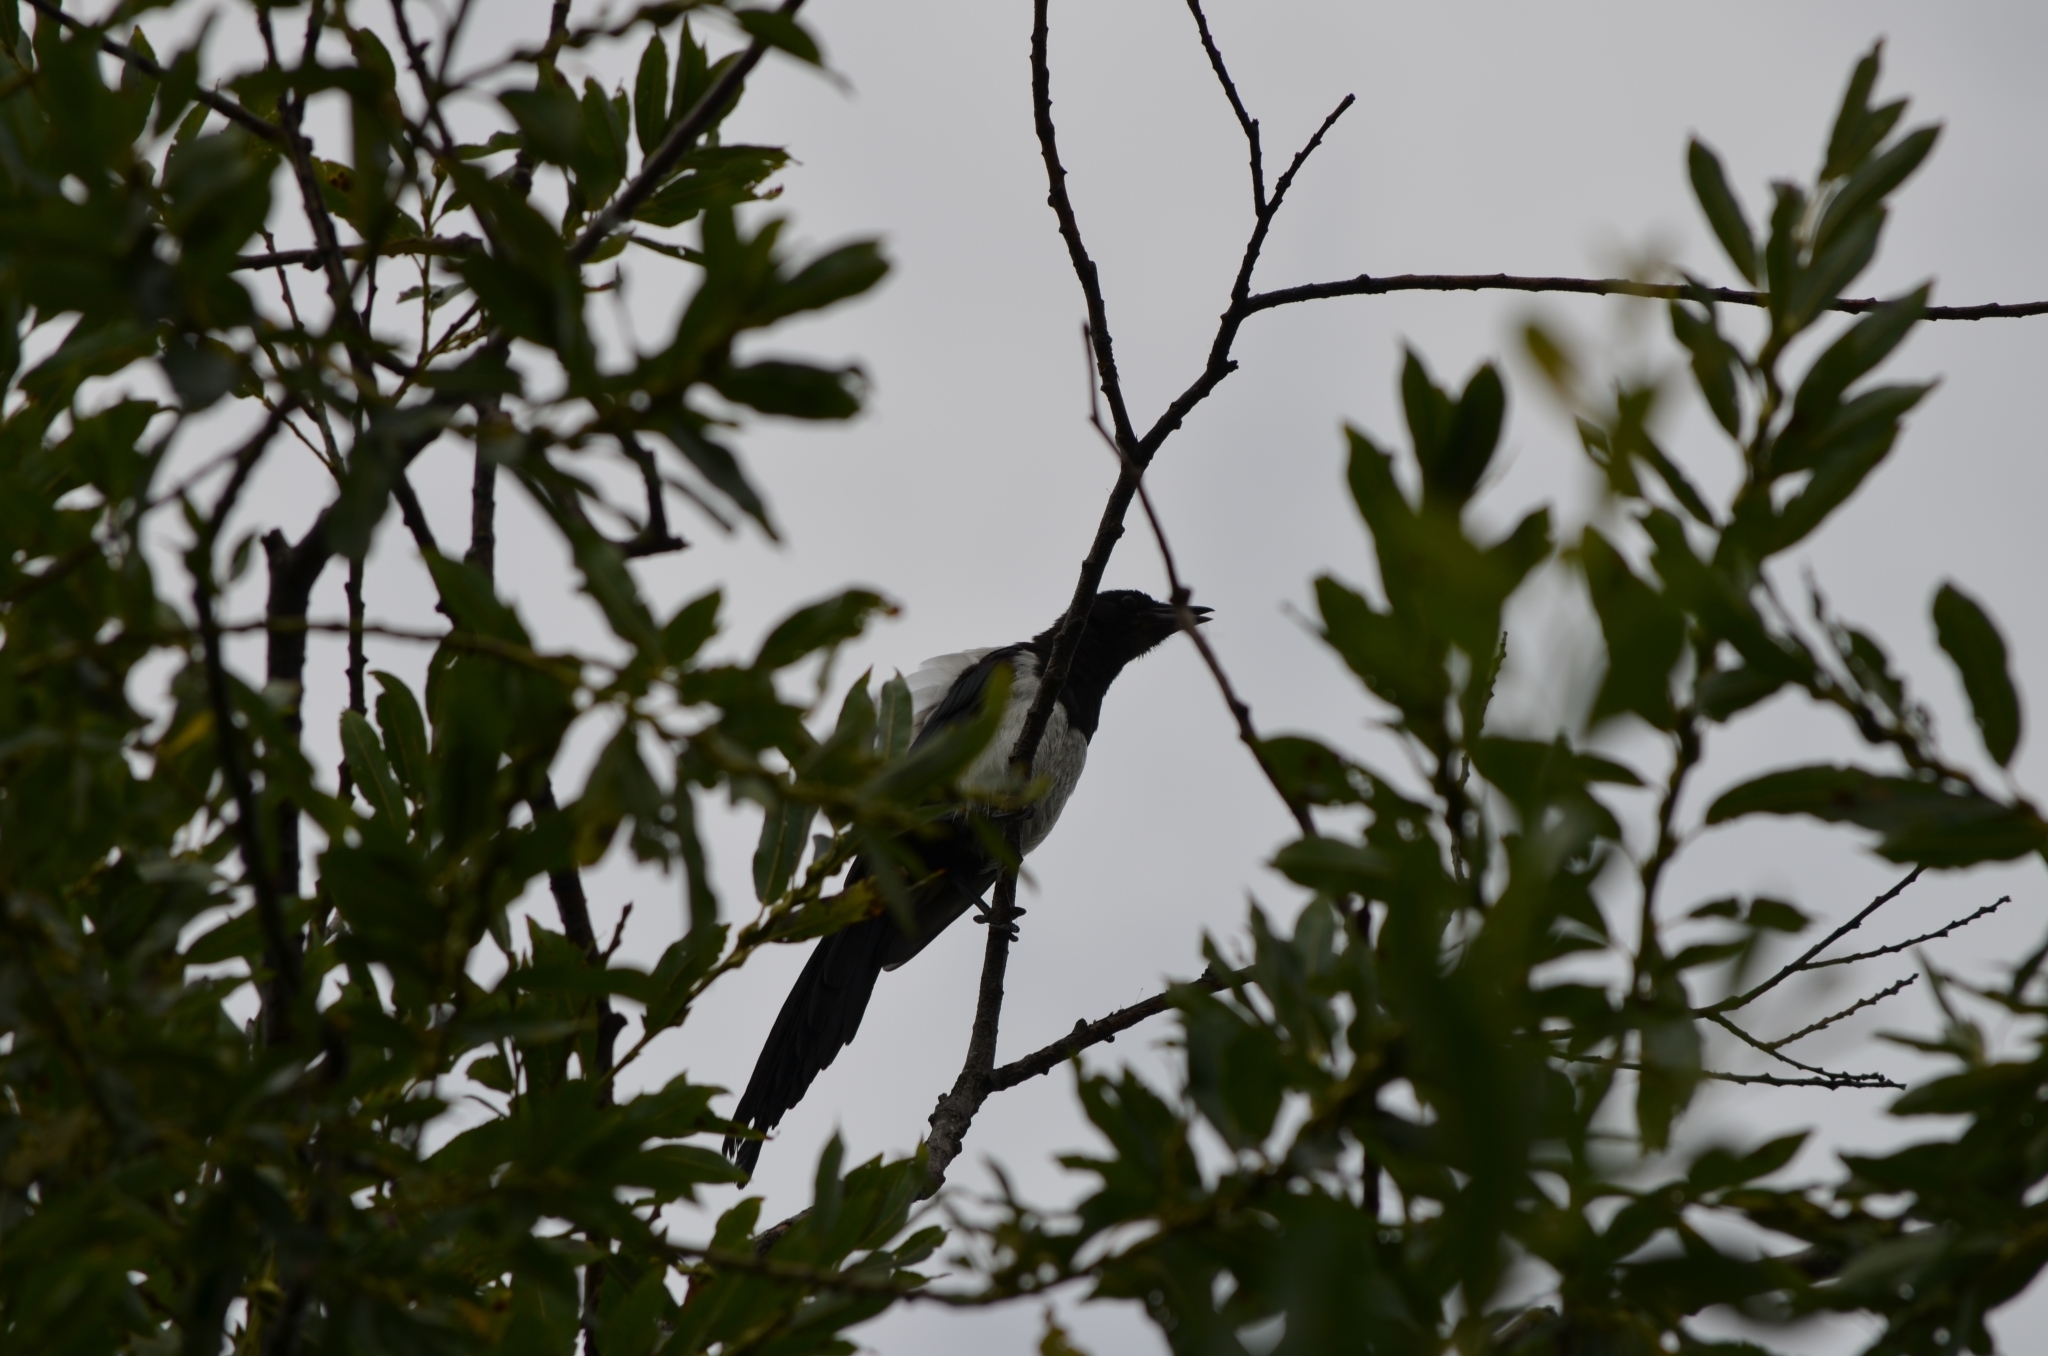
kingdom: Animalia
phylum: Chordata
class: Aves
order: Passeriformes
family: Corvidae
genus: Pica
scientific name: Pica pica
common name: Eurasian magpie
